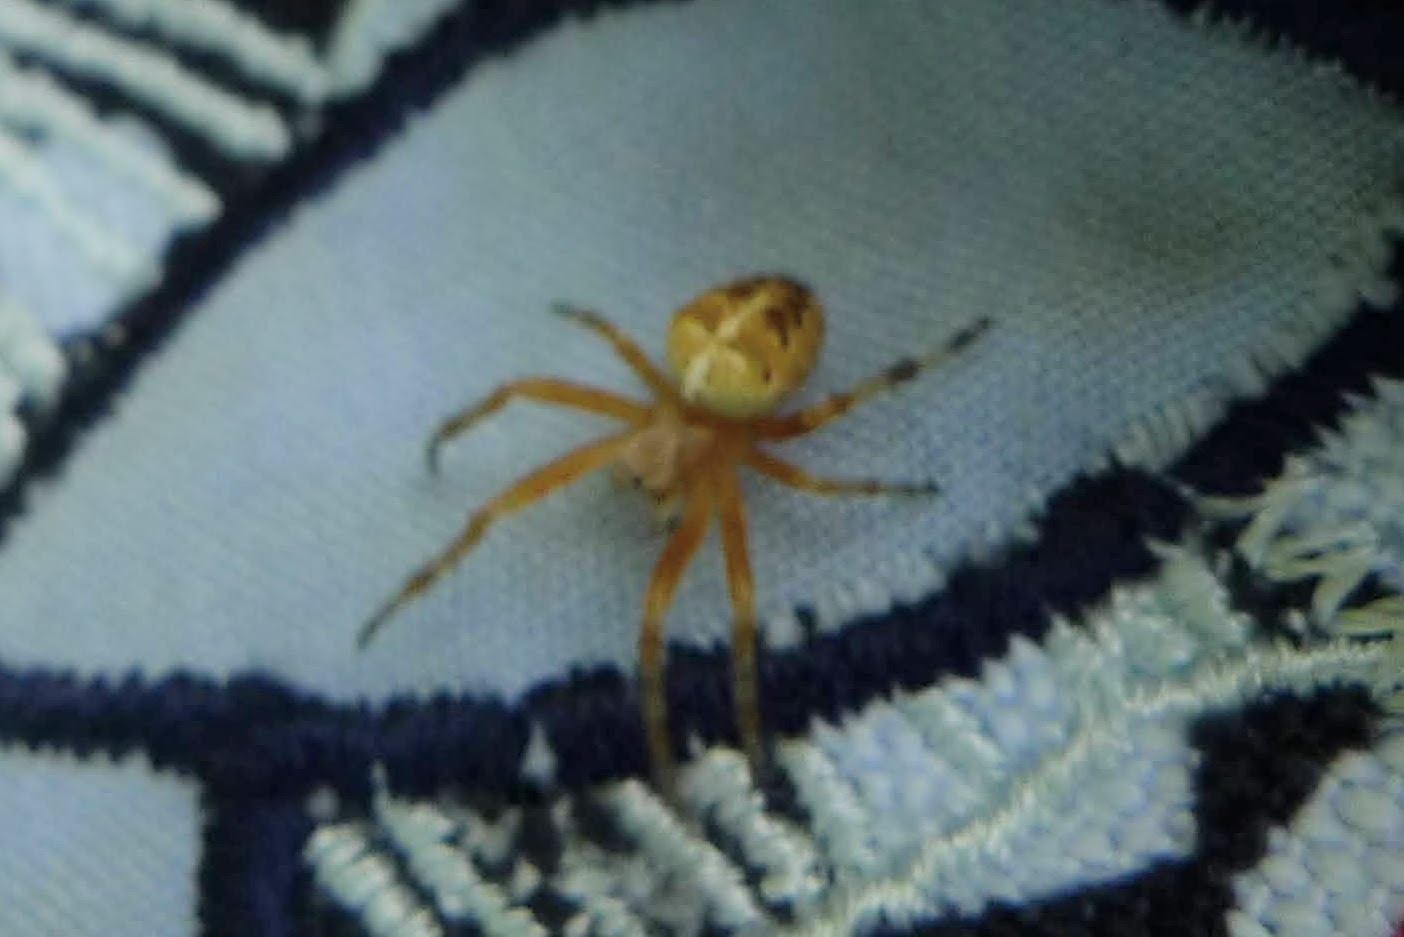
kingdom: Animalia
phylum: Arthropoda
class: Arachnida
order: Araneae
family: Araneidae
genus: Araneus
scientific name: Araneus diadematus
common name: Cross orbweaver
